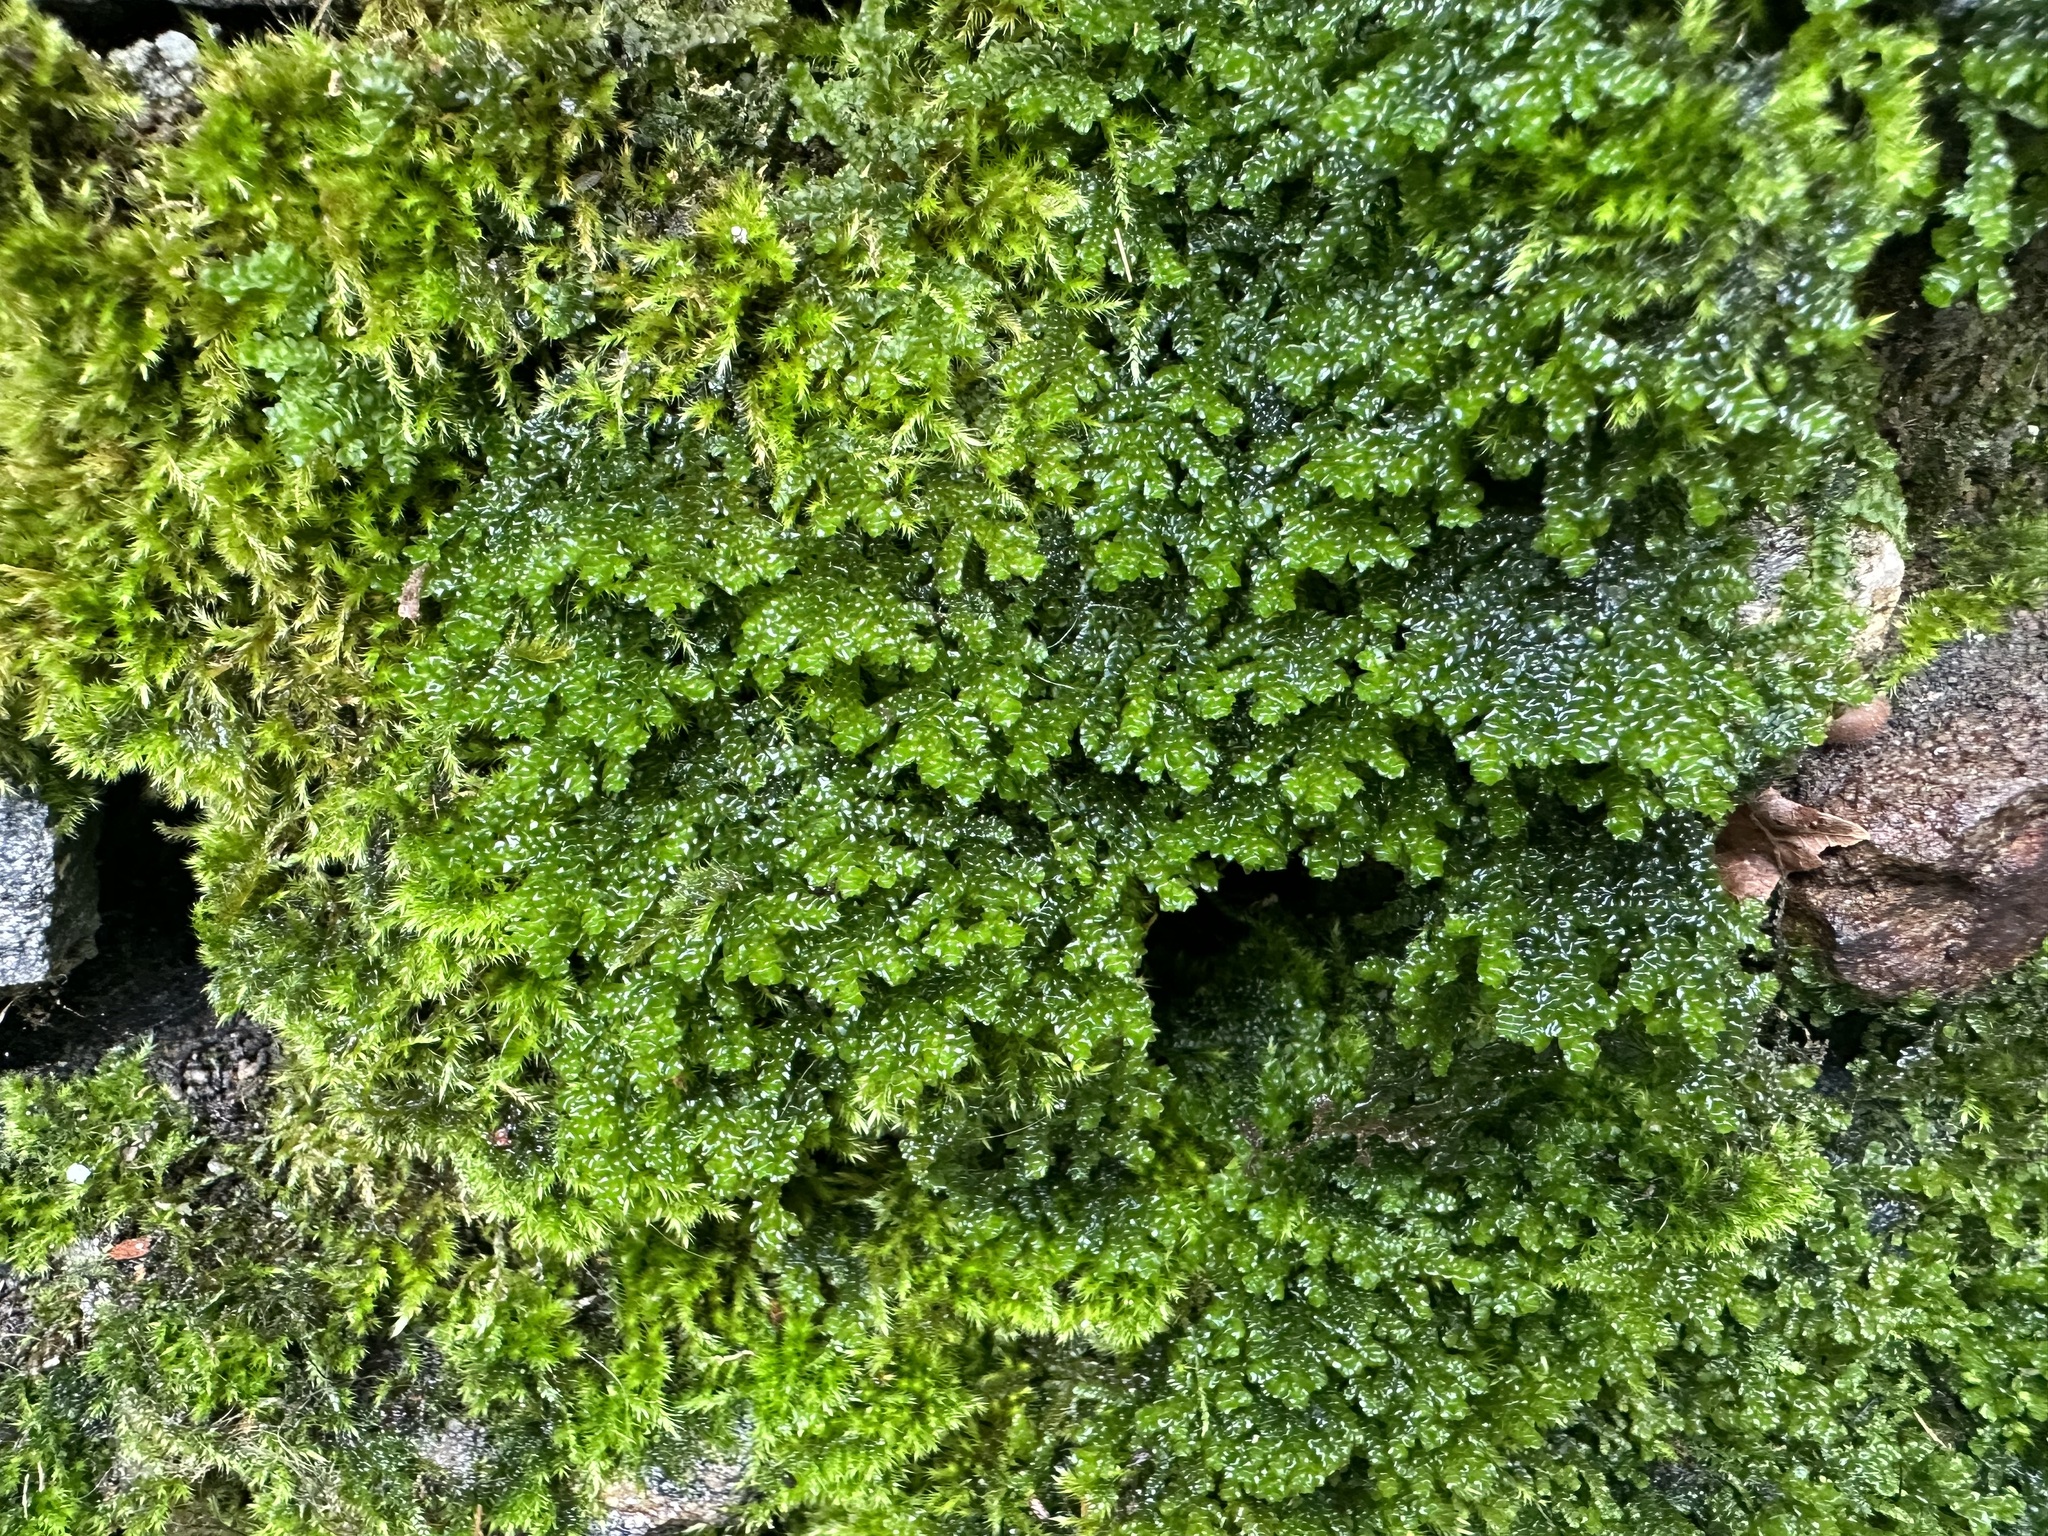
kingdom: Plantae
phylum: Marchantiophyta
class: Jungermanniopsida
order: Porellales
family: Porellaceae
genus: Porella
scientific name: Porella platyphylla
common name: Wall scalewort
